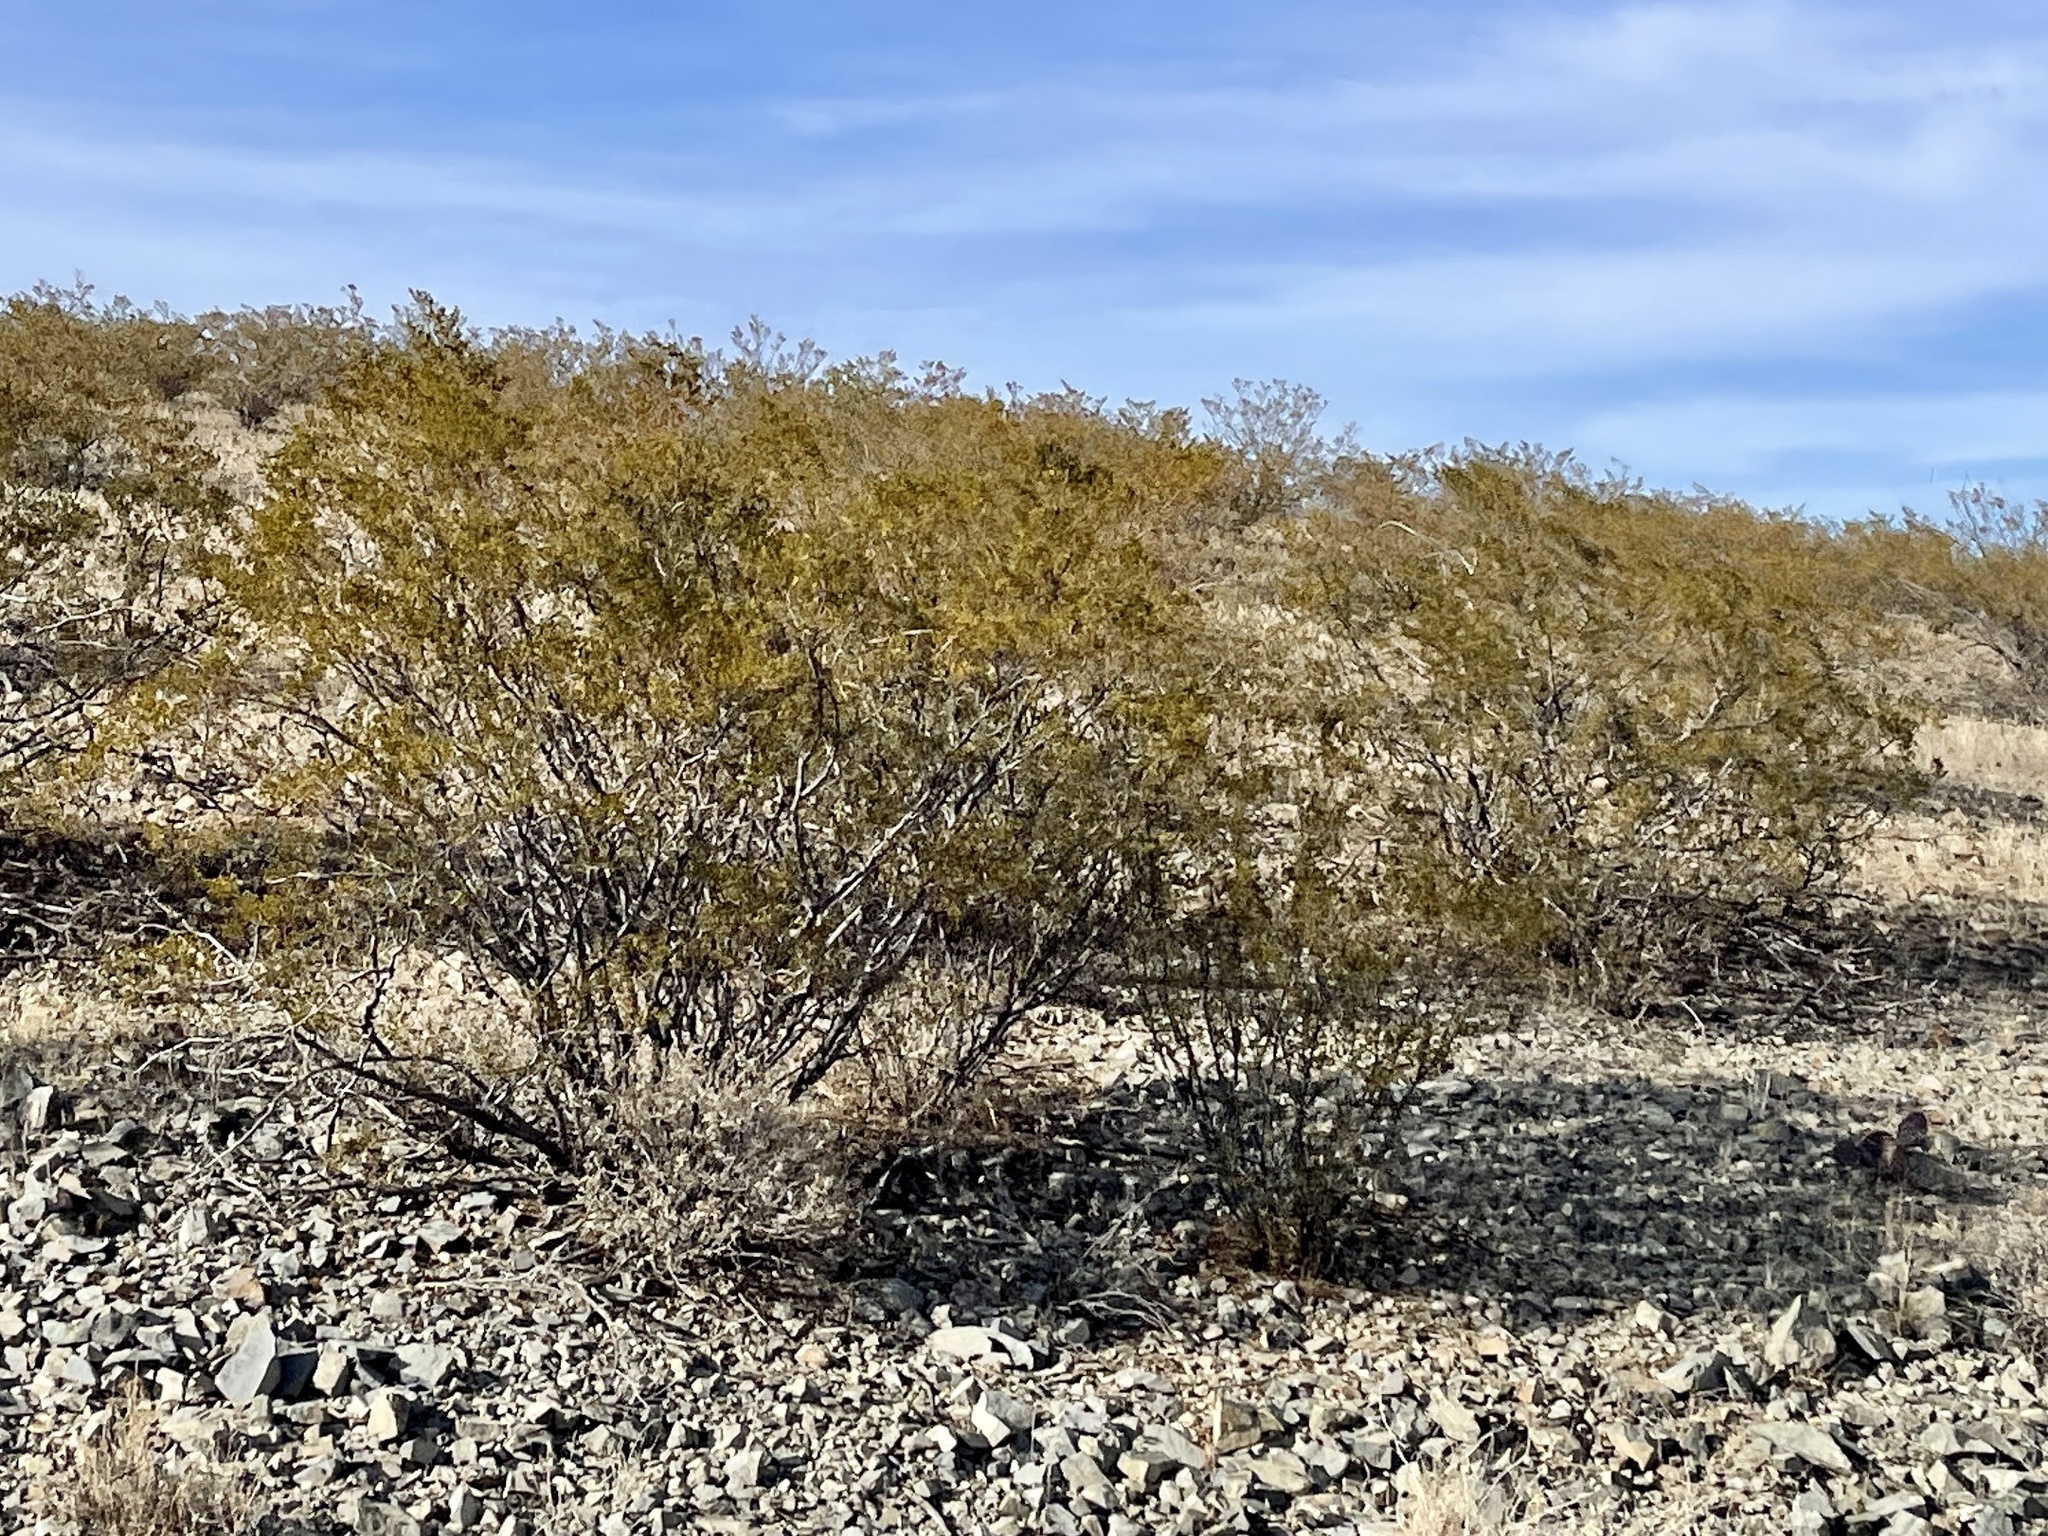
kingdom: Plantae
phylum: Tracheophyta
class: Magnoliopsida
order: Zygophyllales
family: Zygophyllaceae
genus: Larrea
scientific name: Larrea tridentata
